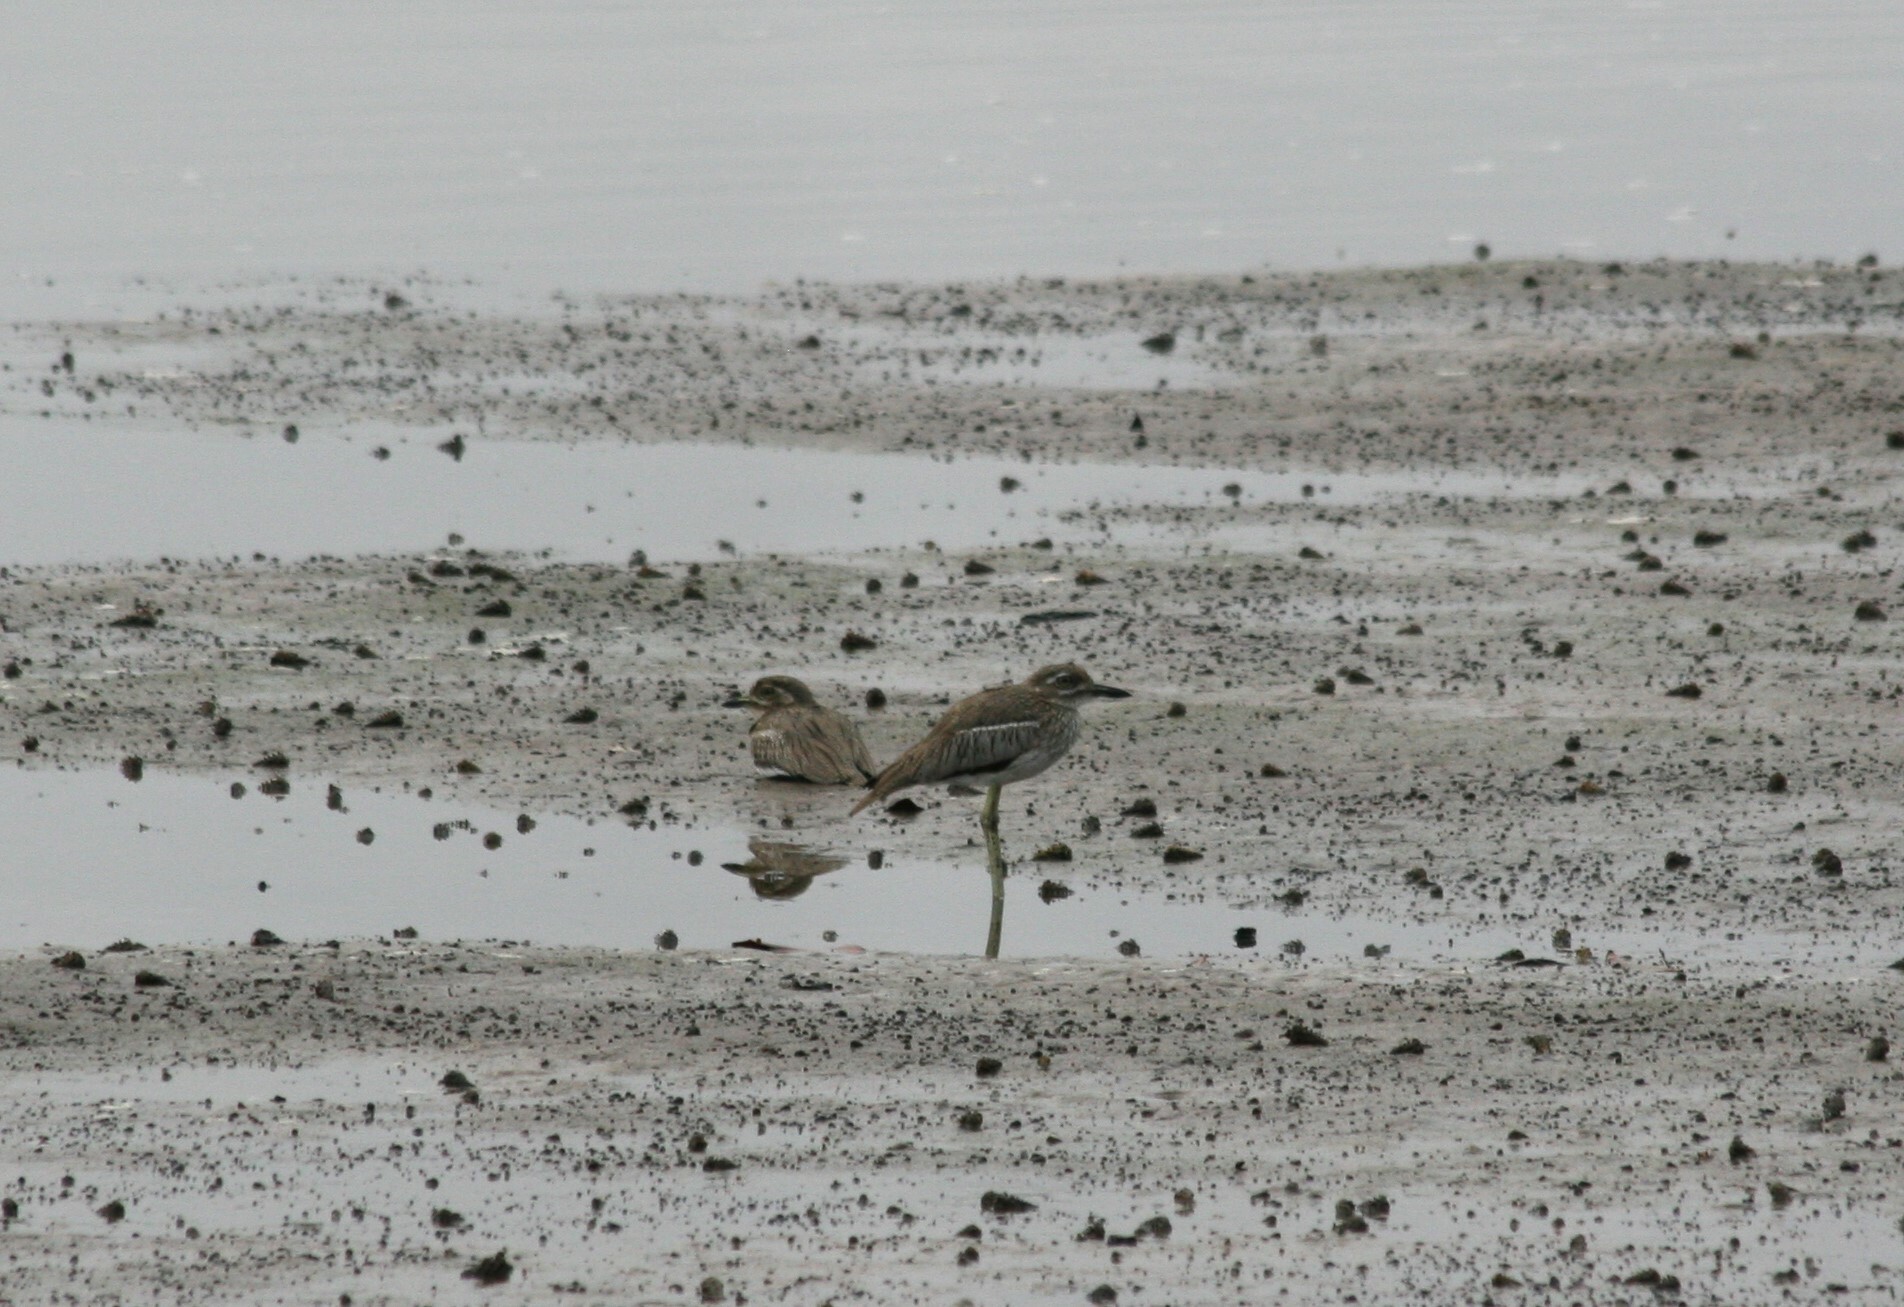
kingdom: Animalia
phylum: Chordata
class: Aves
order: Charadriiformes
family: Burhinidae
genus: Burhinus
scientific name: Burhinus vermiculatus
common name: Water thick-knee
